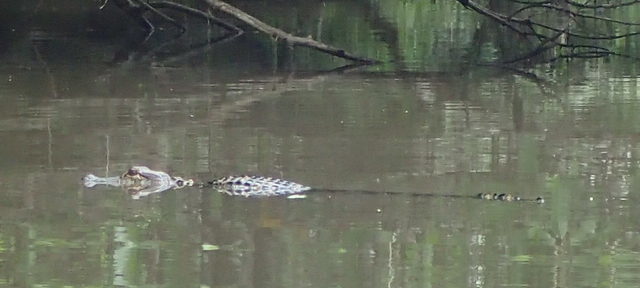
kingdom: Animalia
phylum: Chordata
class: Crocodylia
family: Alligatoridae
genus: Alligator
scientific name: Alligator mississippiensis
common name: American alligator
